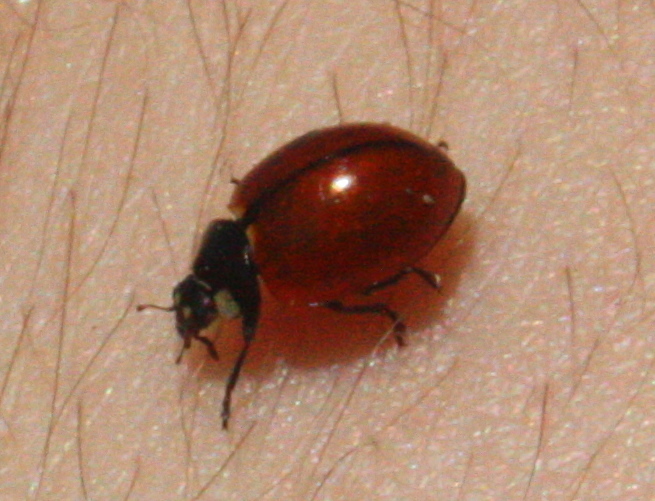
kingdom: Animalia
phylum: Arthropoda
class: Insecta
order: Coleoptera
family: Coccinellidae
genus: Coccinella
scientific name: Coccinella californica
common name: Lady beetle
